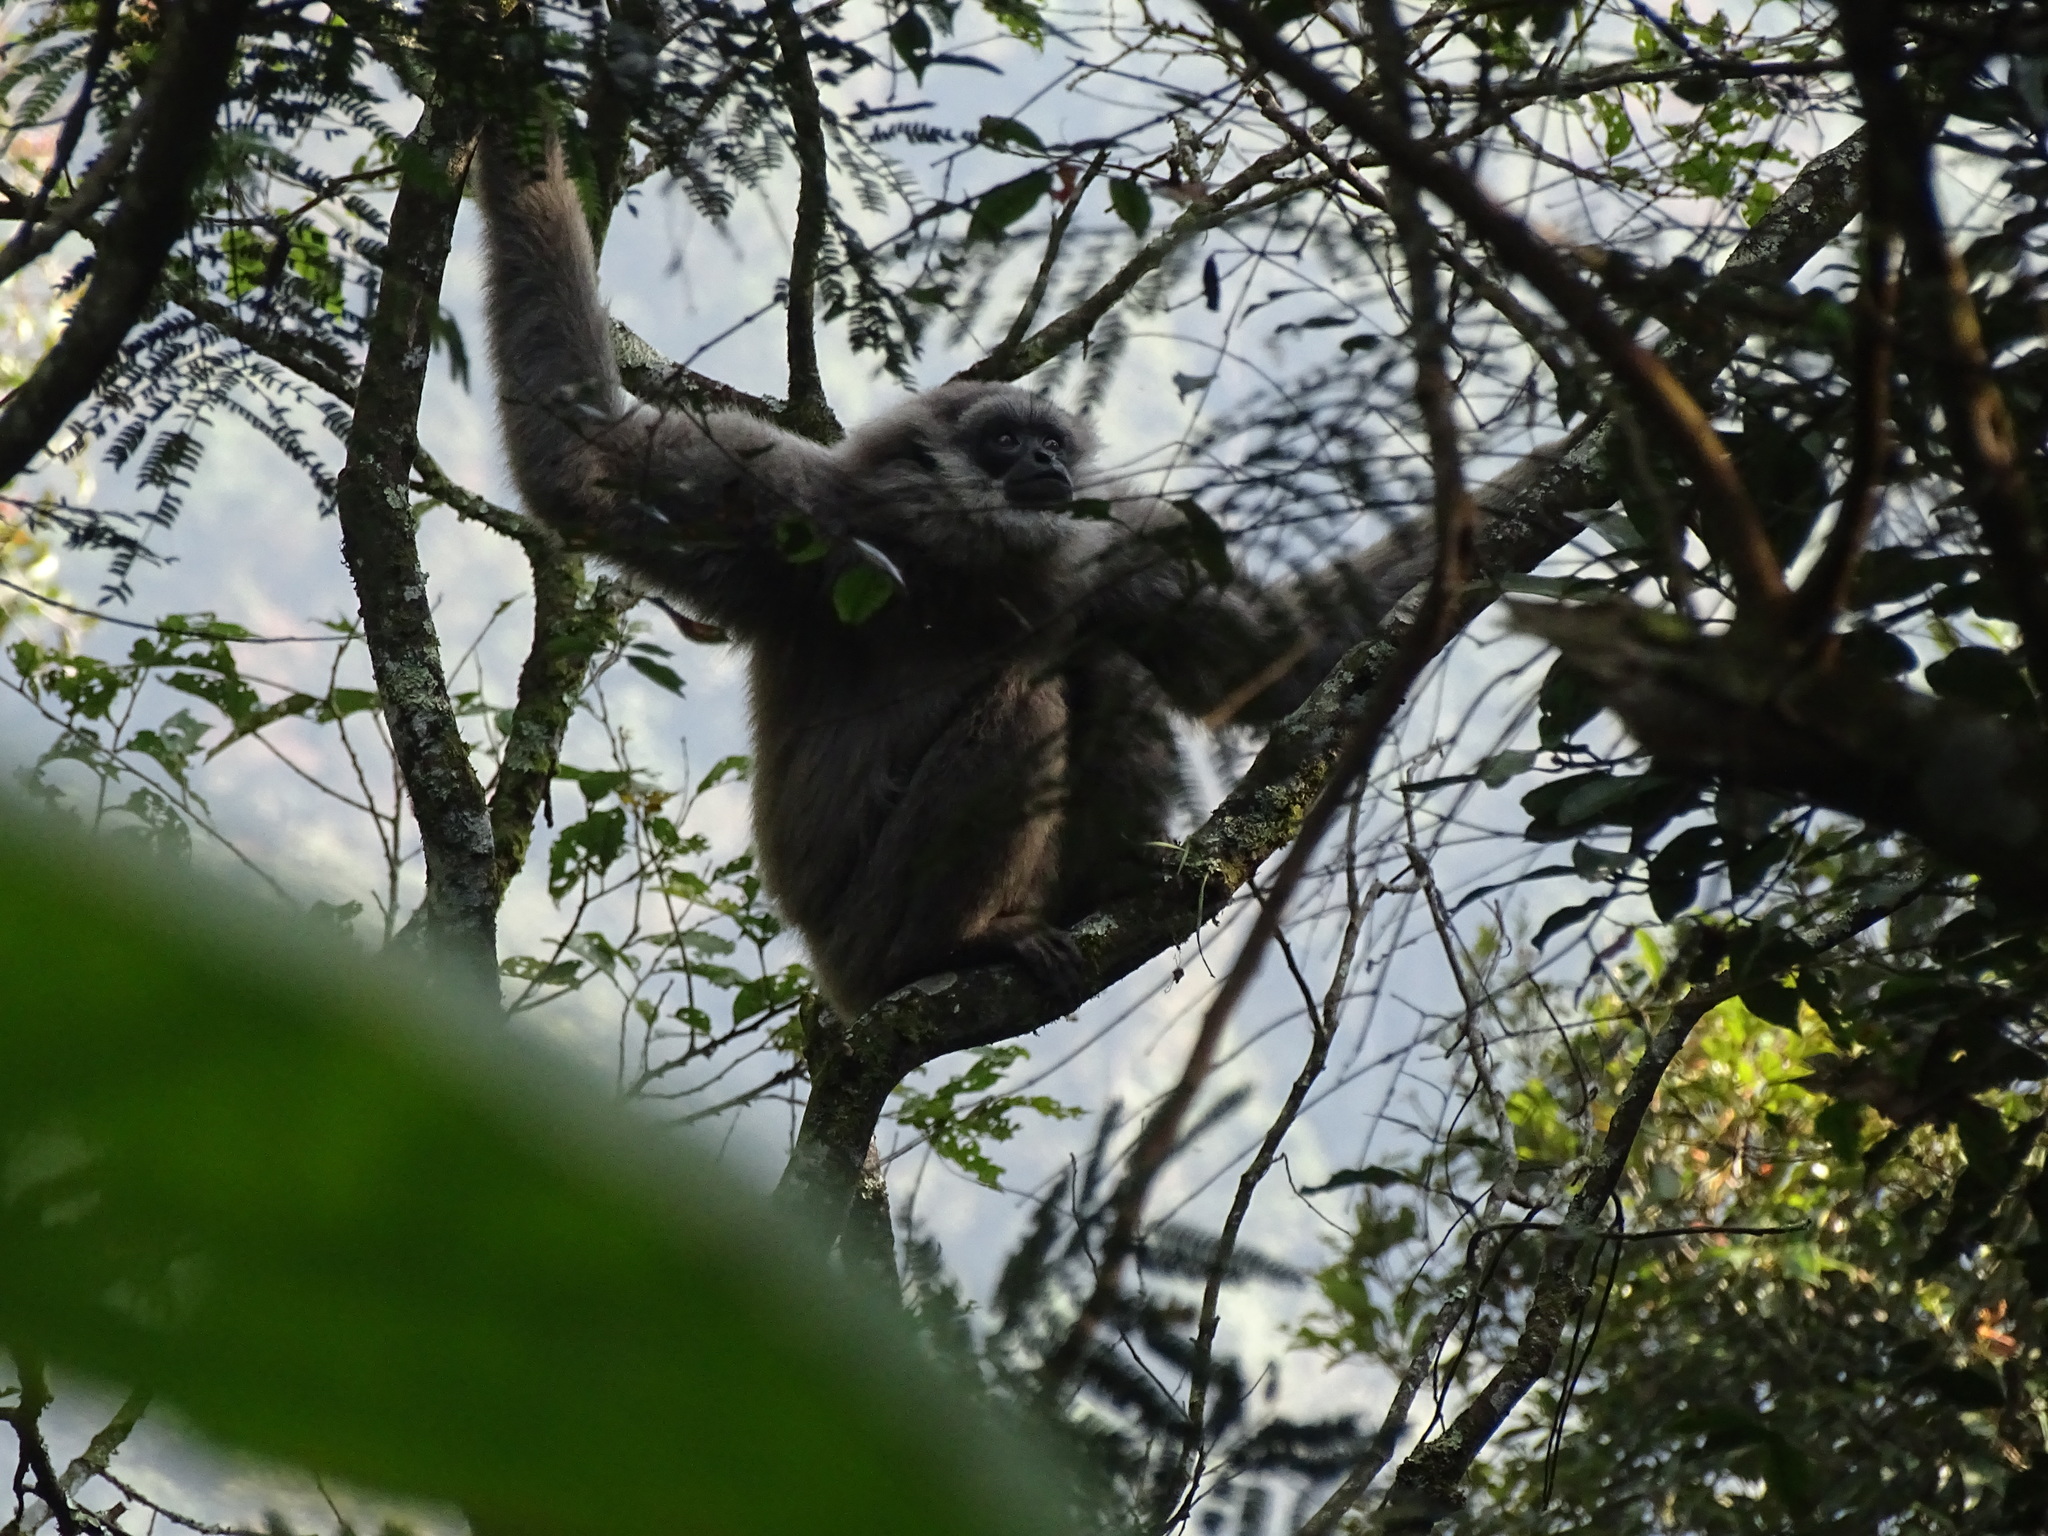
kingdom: Animalia
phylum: Chordata
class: Mammalia
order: Primates
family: Hylobatidae
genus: Hylobates
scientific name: Hylobates moloch
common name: Silvery javan gibbon
